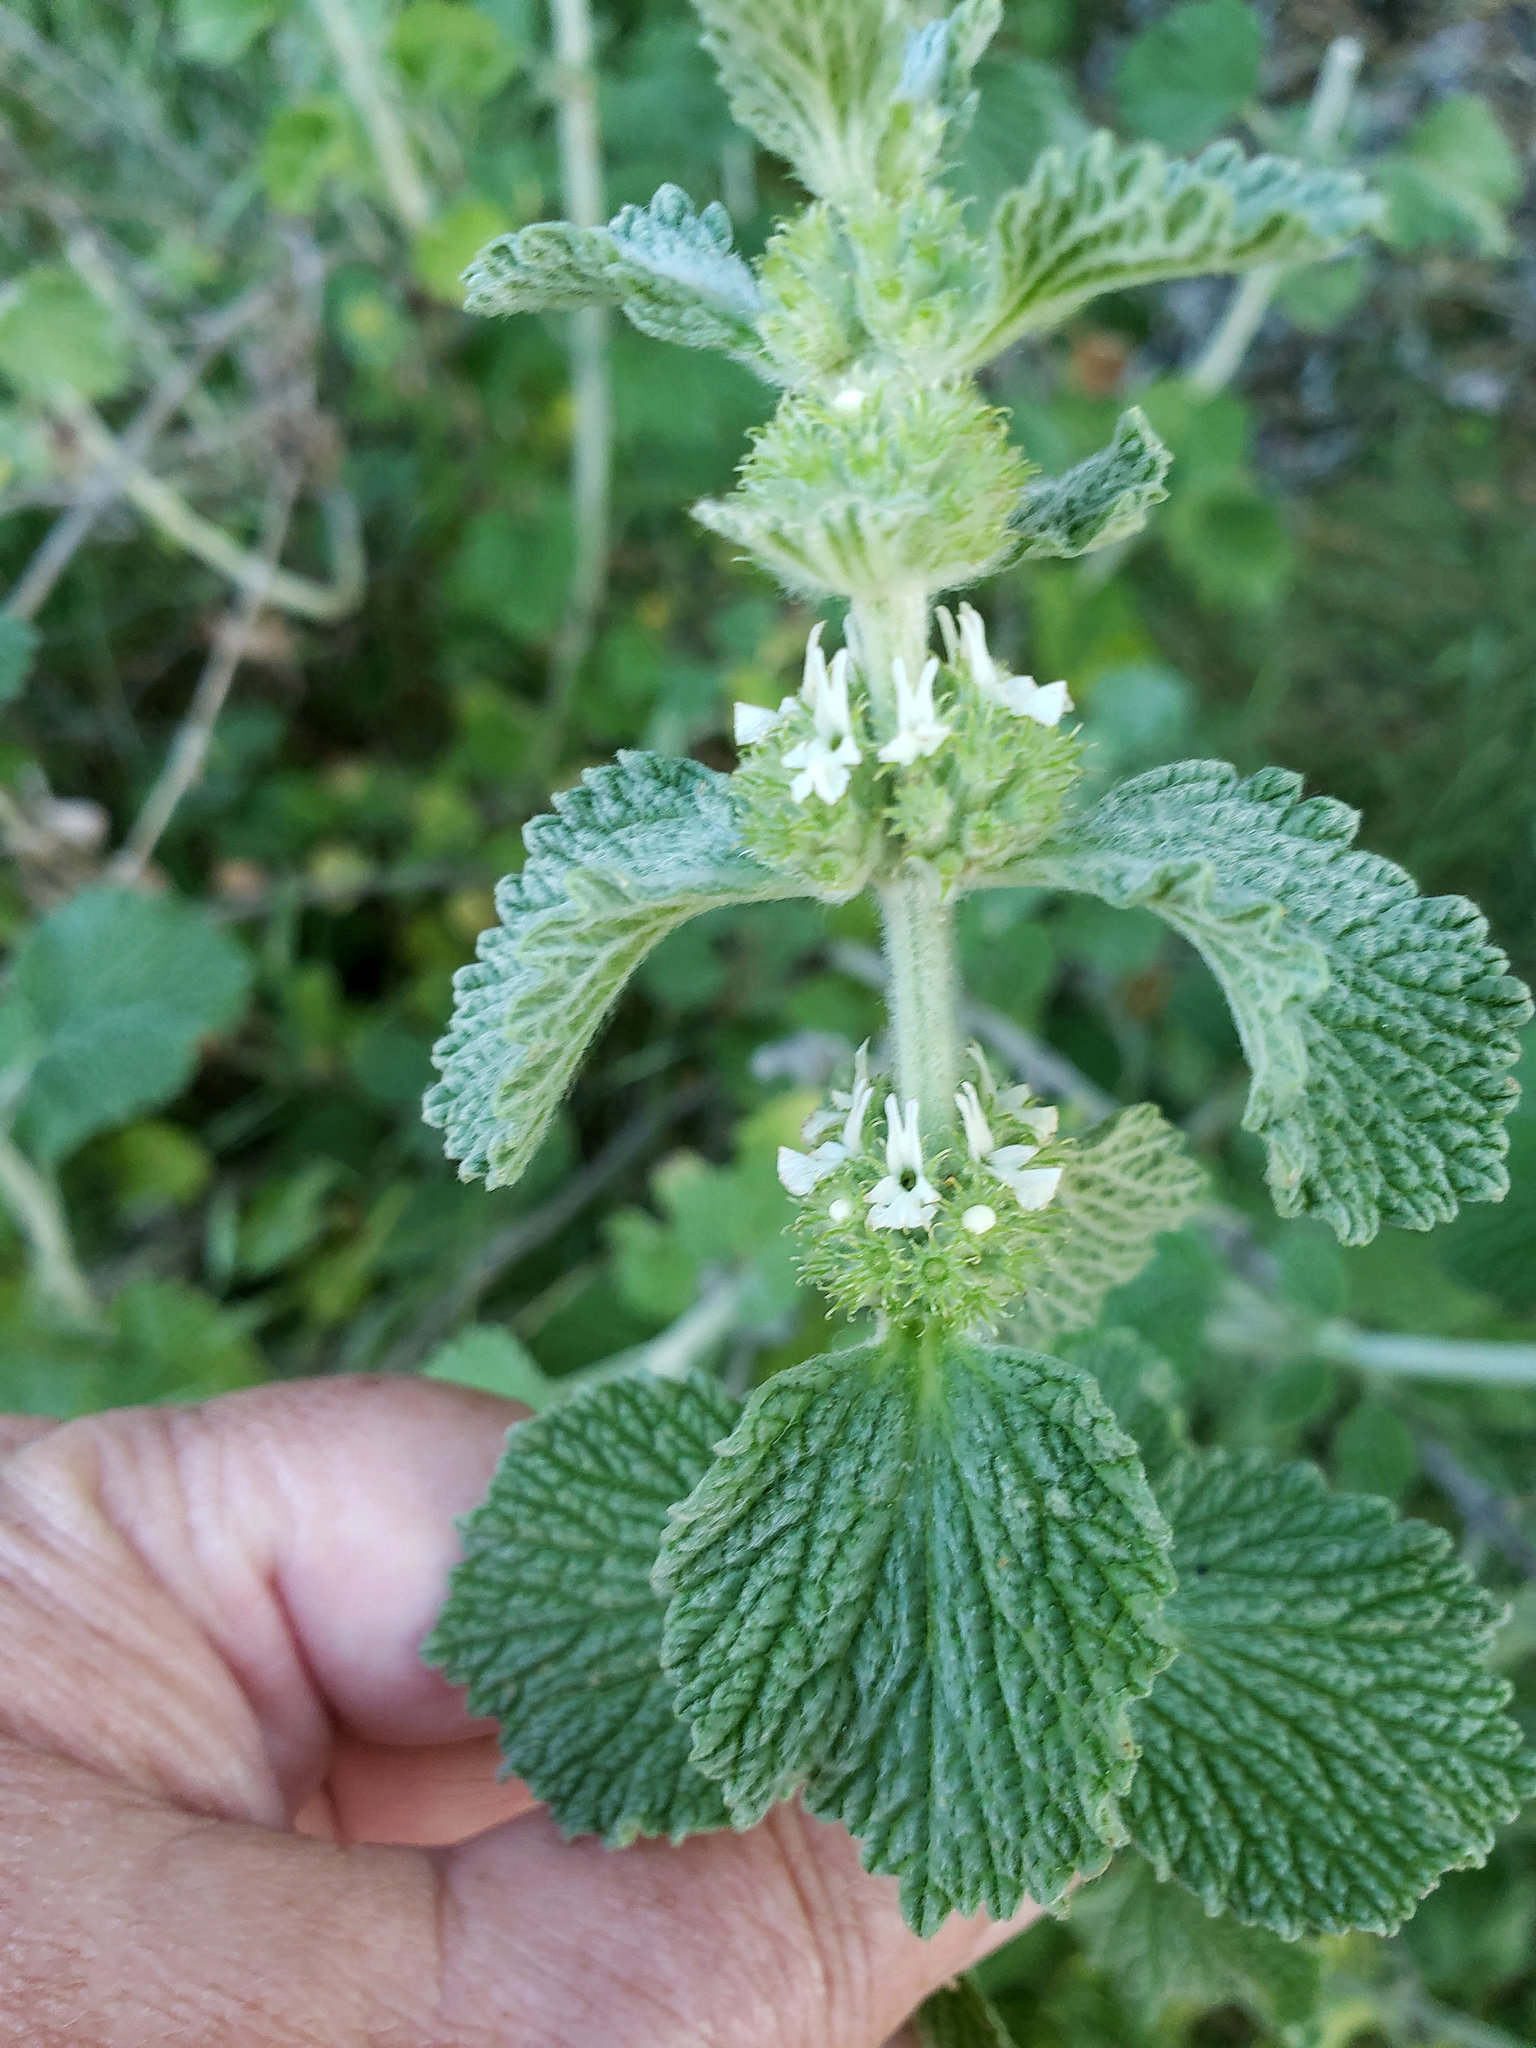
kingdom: Plantae
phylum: Tracheophyta
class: Magnoliopsida
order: Lamiales
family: Lamiaceae
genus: Marrubium
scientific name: Marrubium vulgare
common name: Horehound
